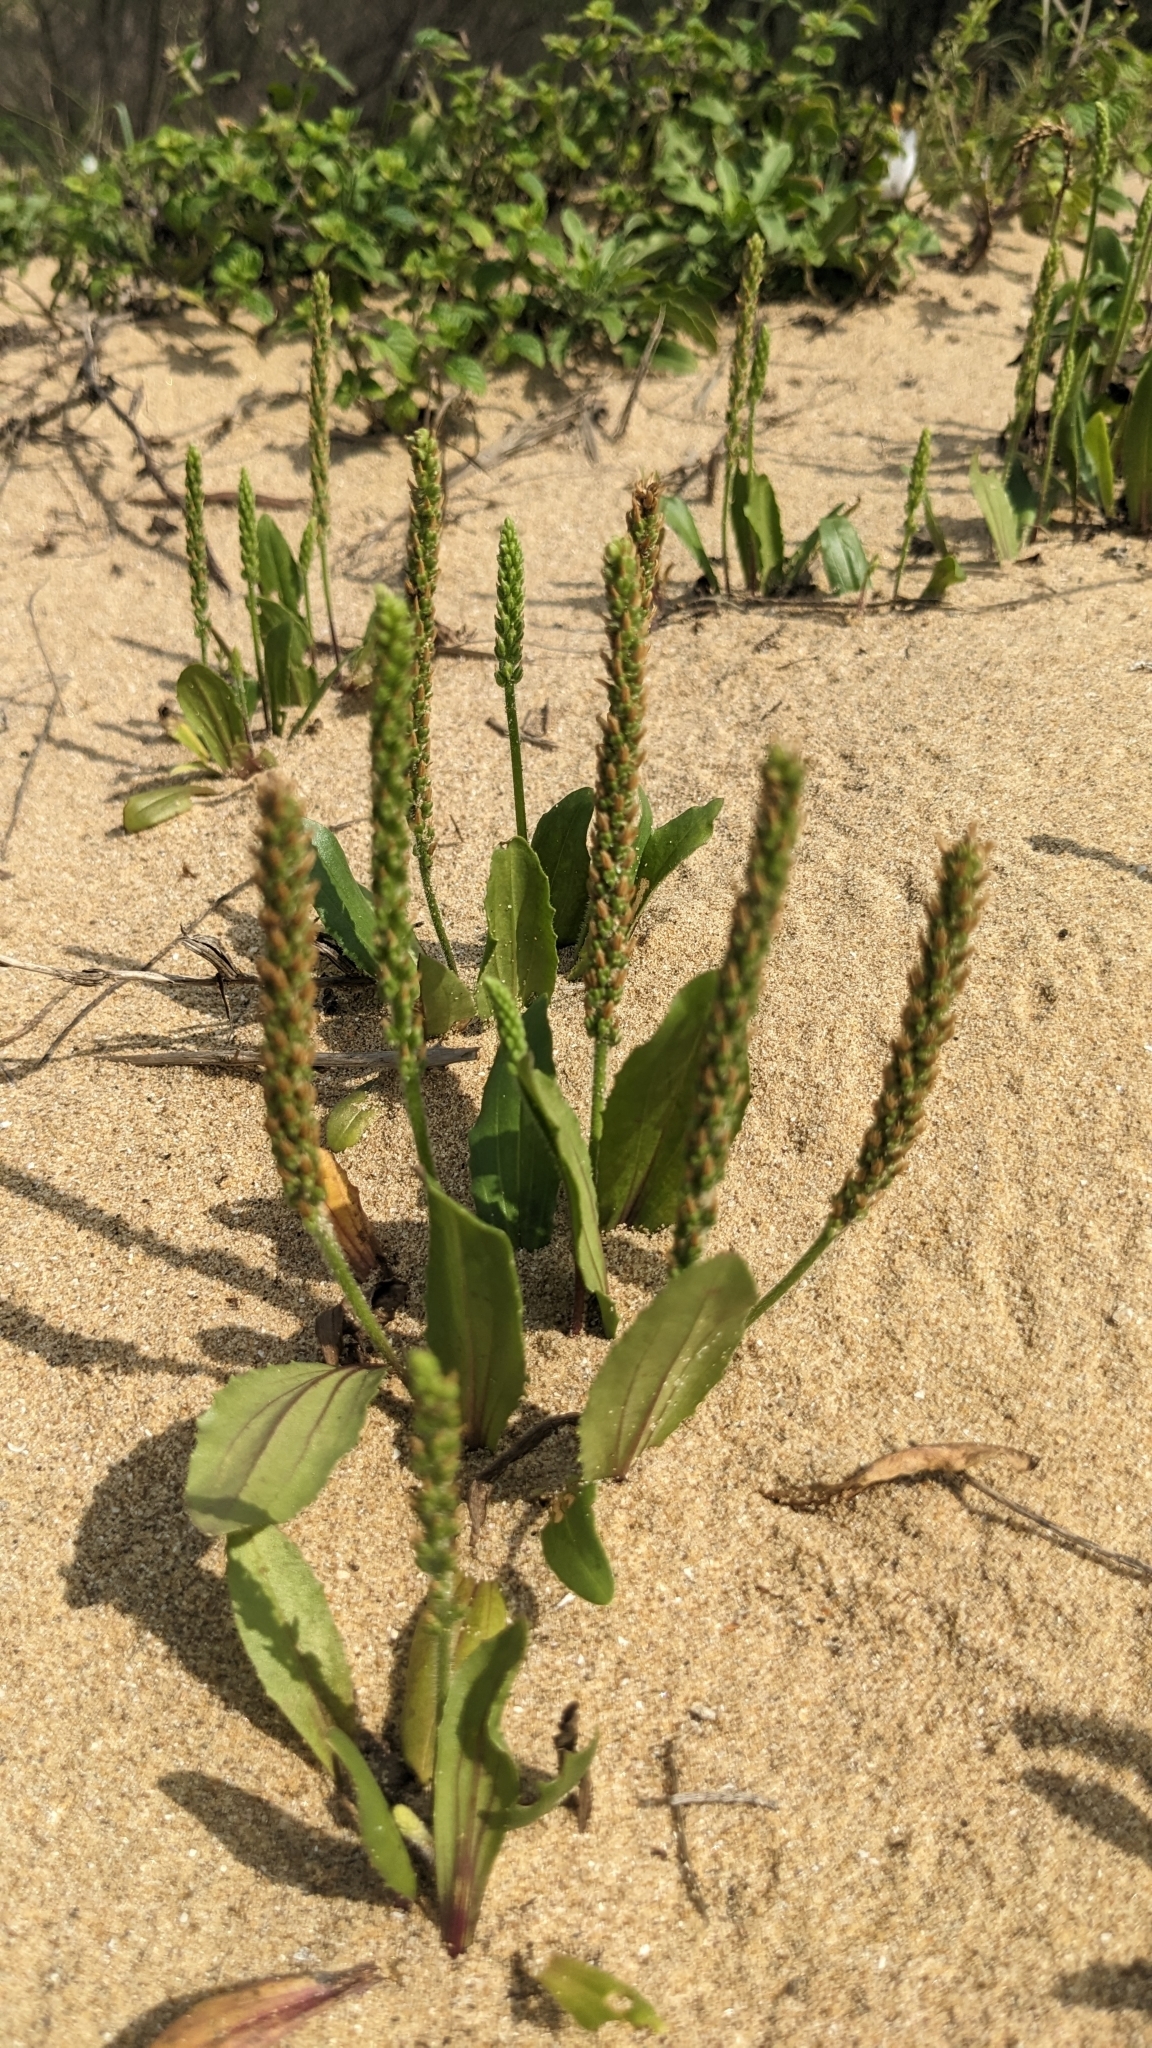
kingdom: Plantae
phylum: Tracheophyta
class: Magnoliopsida
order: Lamiales
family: Plantaginaceae
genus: Plantago
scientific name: Plantago virginica
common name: Hoary plantain
